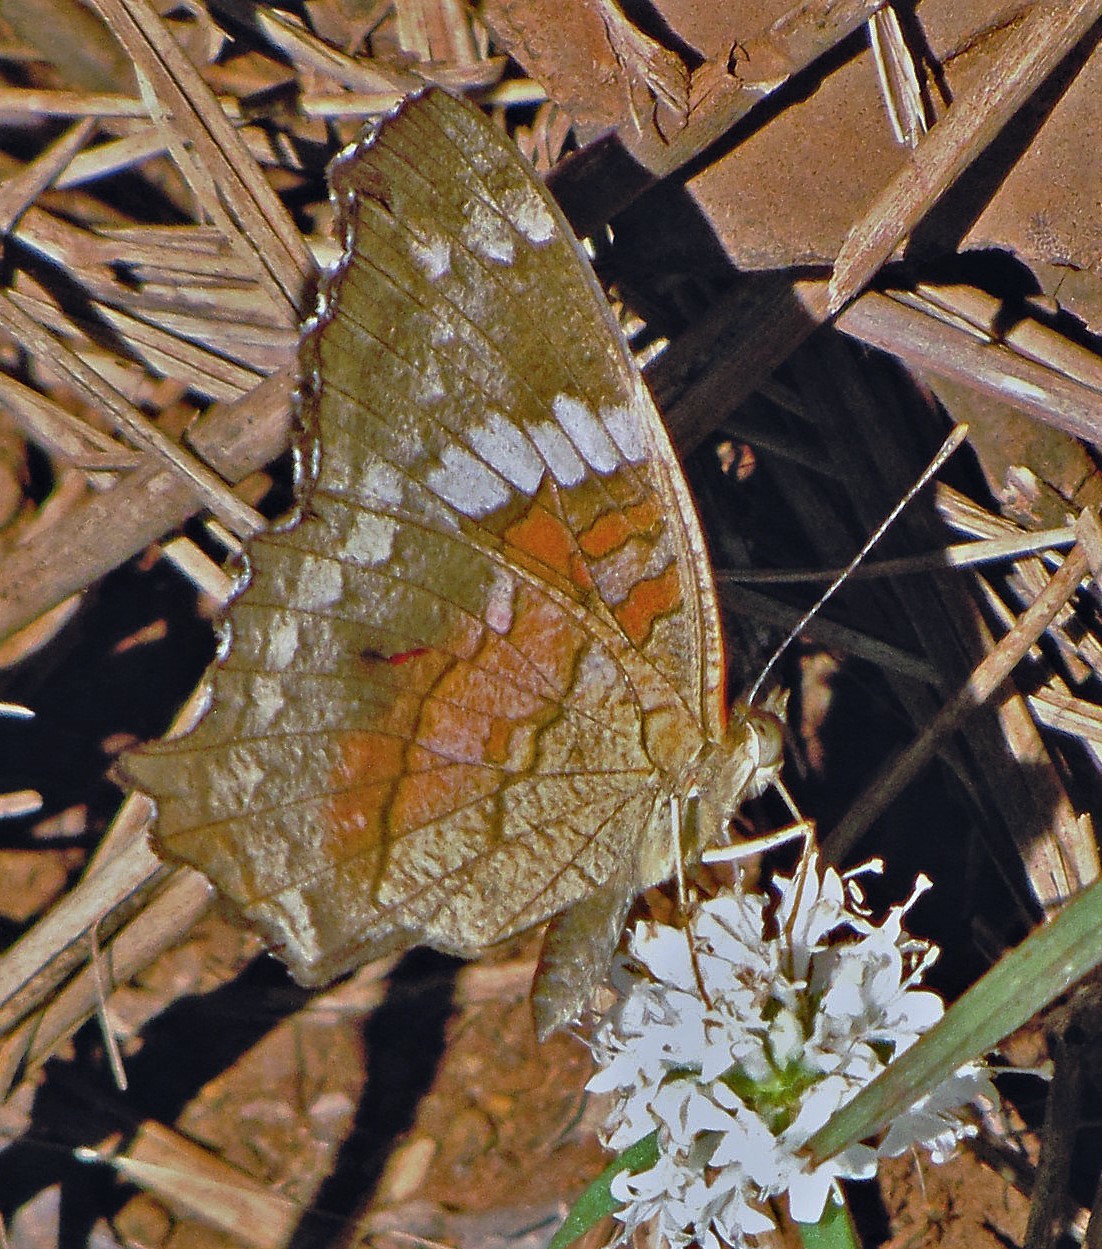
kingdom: Animalia
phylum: Arthropoda
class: Insecta
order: Lepidoptera
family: Nymphalidae
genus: Anartia
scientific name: Anartia amathea
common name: Red peacock
